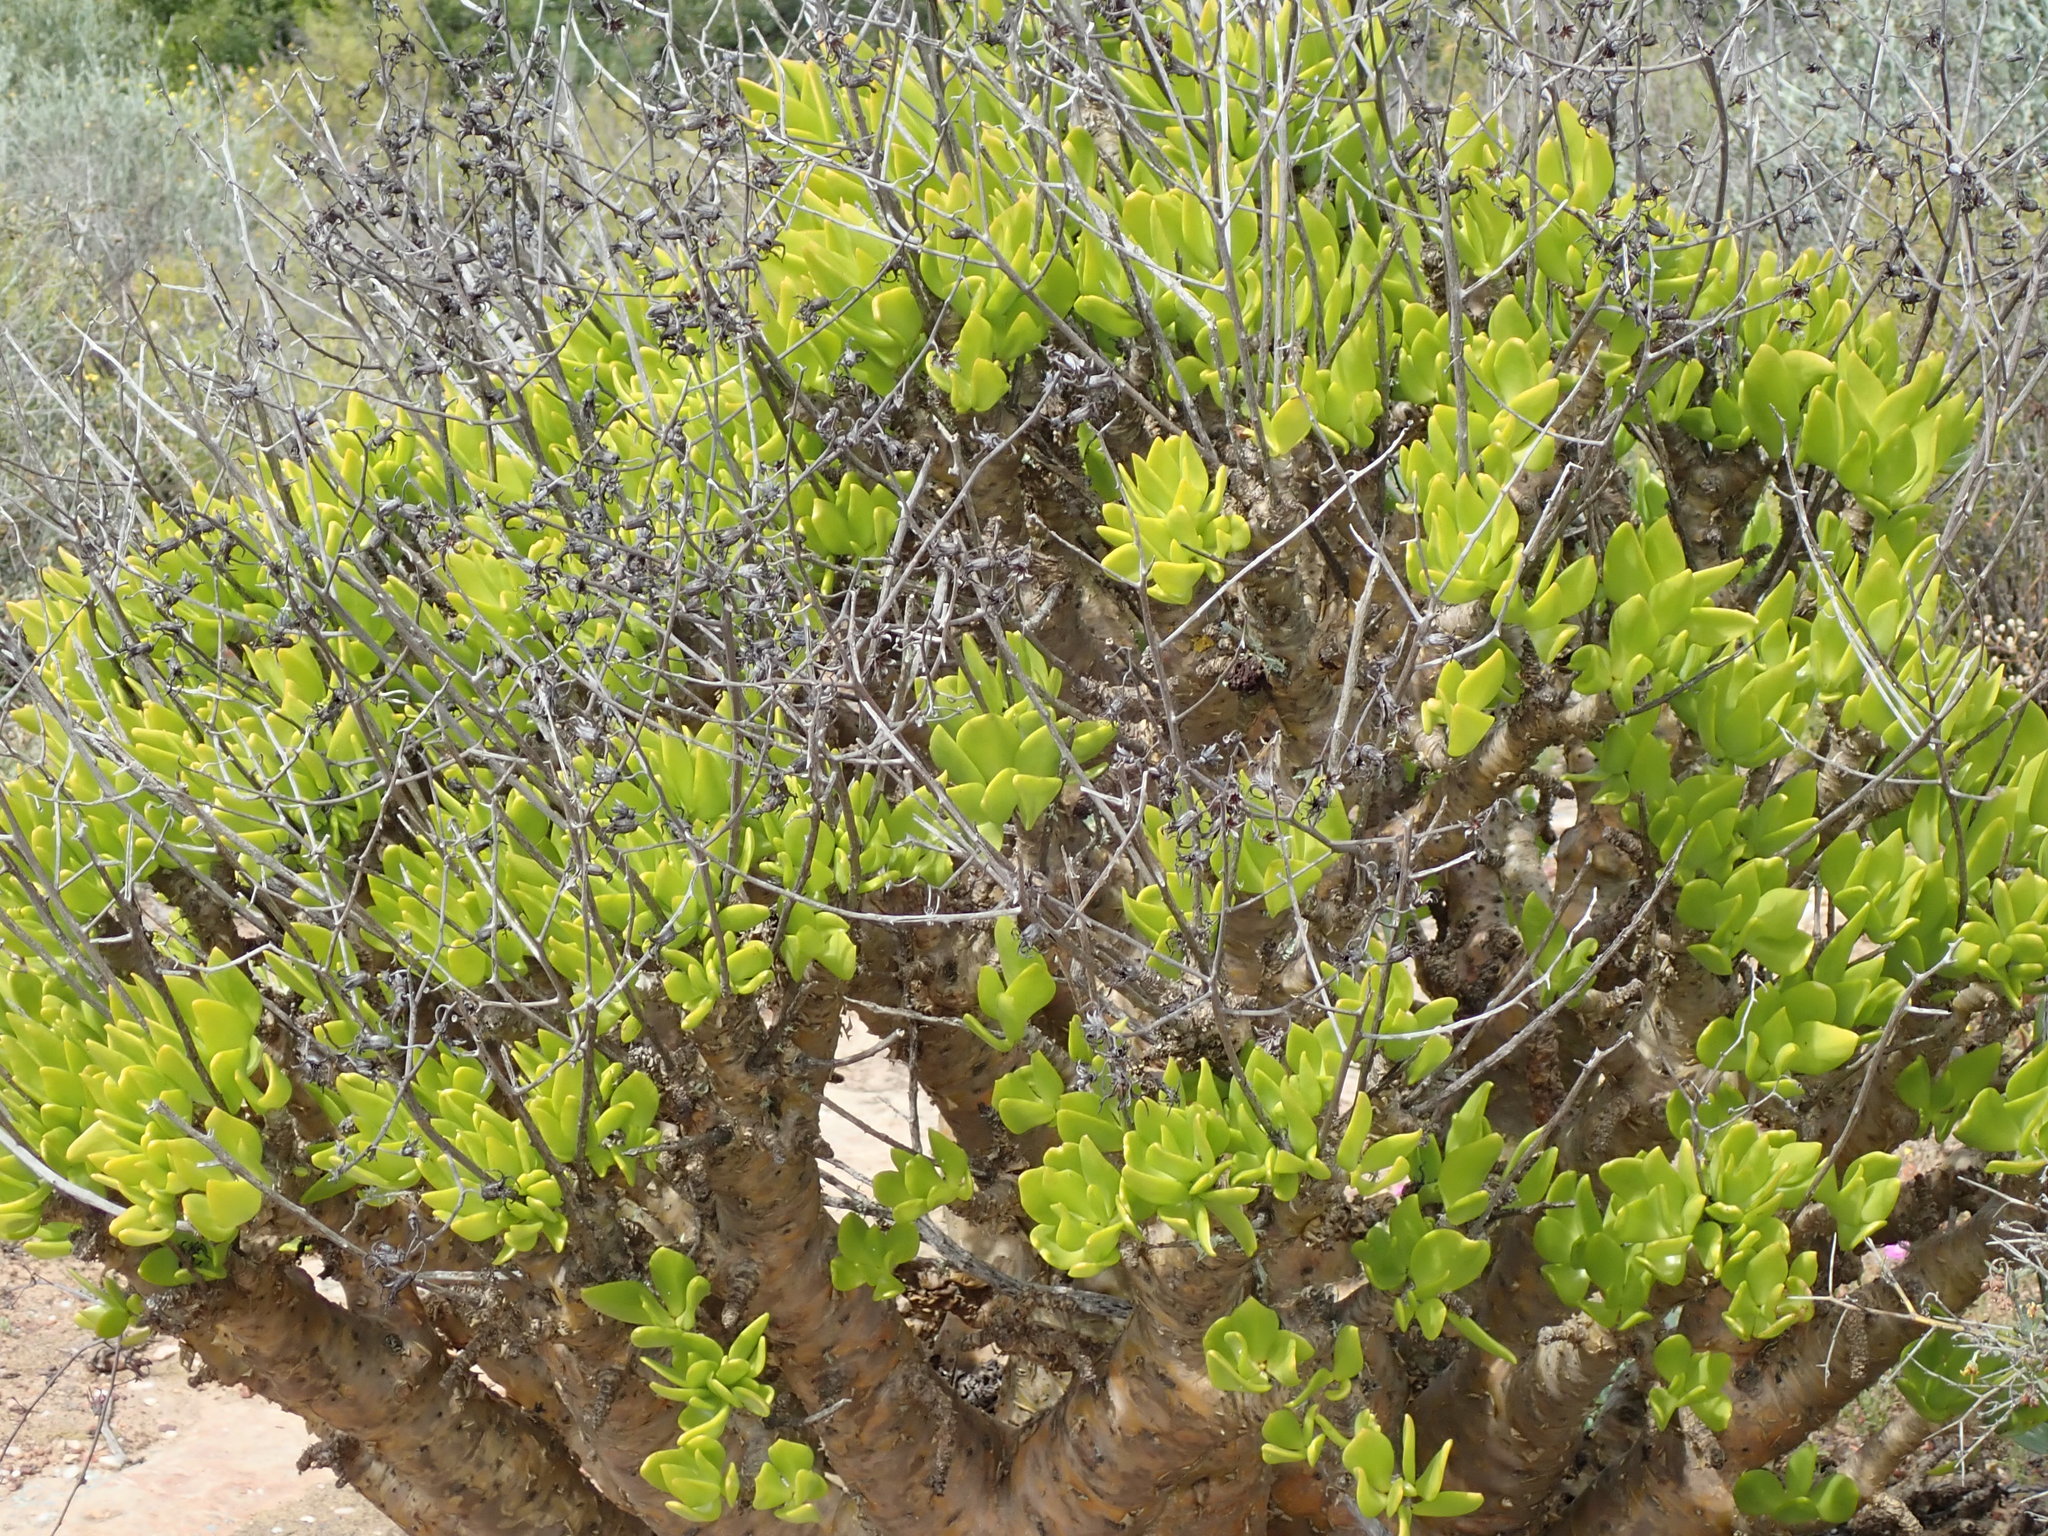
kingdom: Plantae
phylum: Tracheophyta
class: Magnoliopsida
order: Saxifragales
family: Crassulaceae
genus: Tylecodon
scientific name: Tylecodon paniculatus
